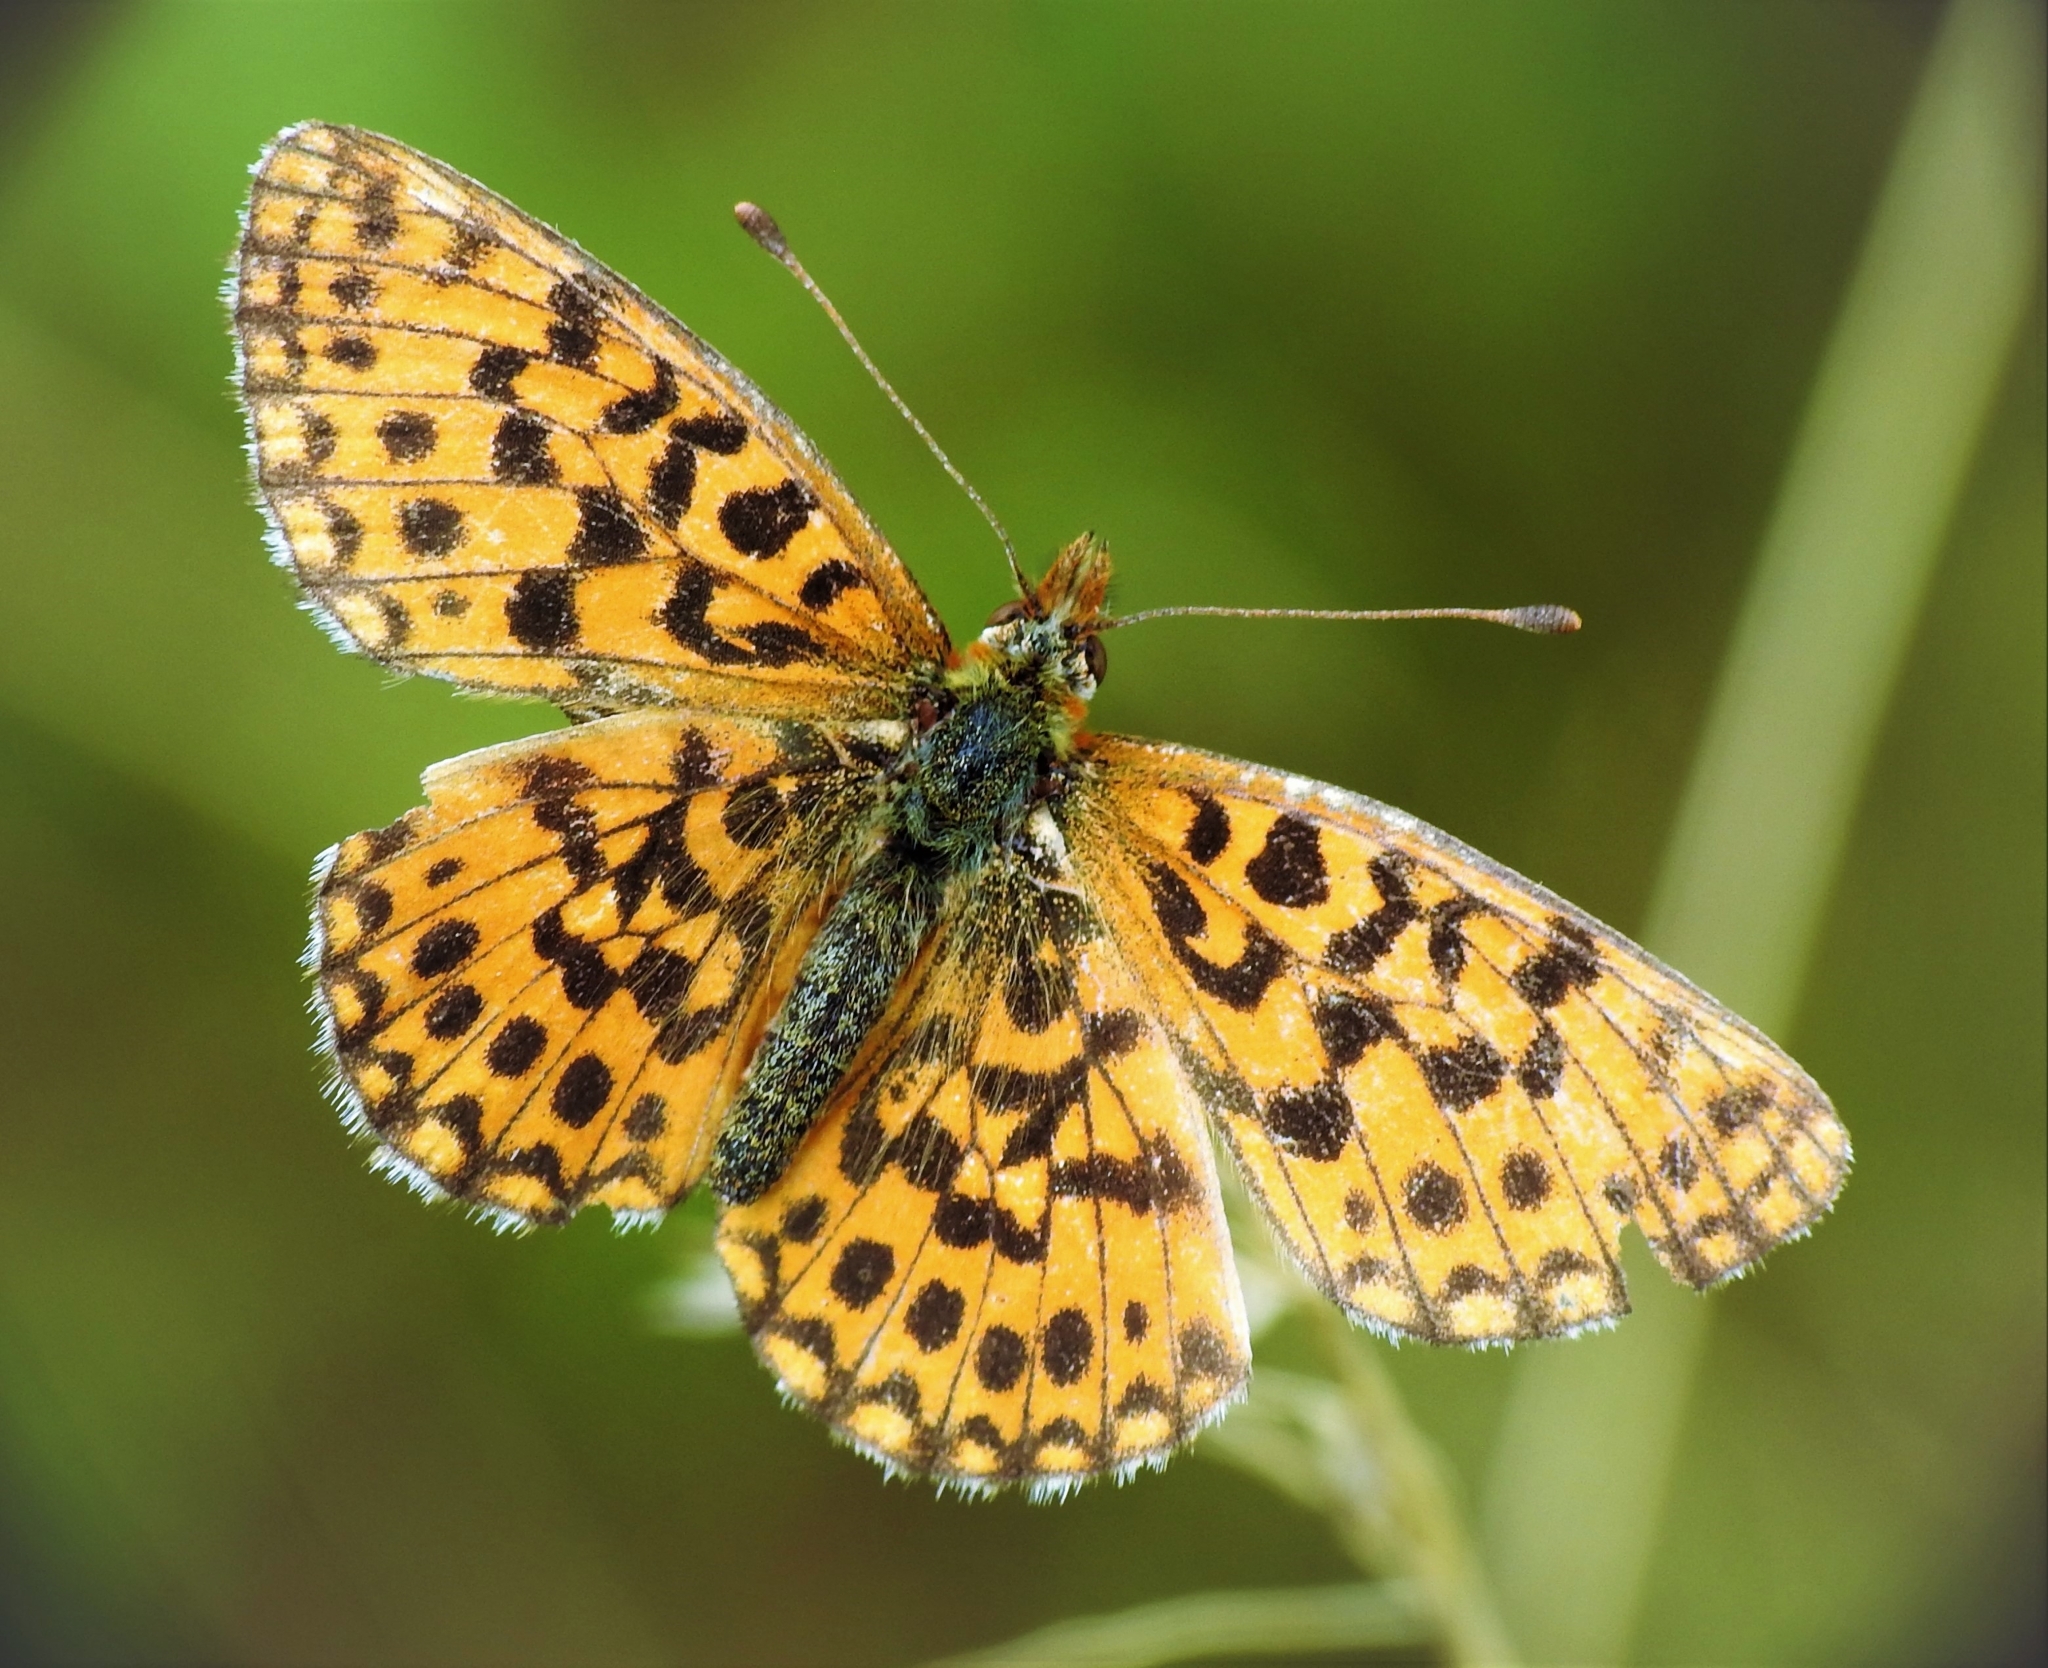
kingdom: Animalia
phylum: Arthropoda
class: Insecta
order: Lepidoptera
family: Nymphalidae
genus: Boloria
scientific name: Boloria dia
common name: Weaver's fritillary
